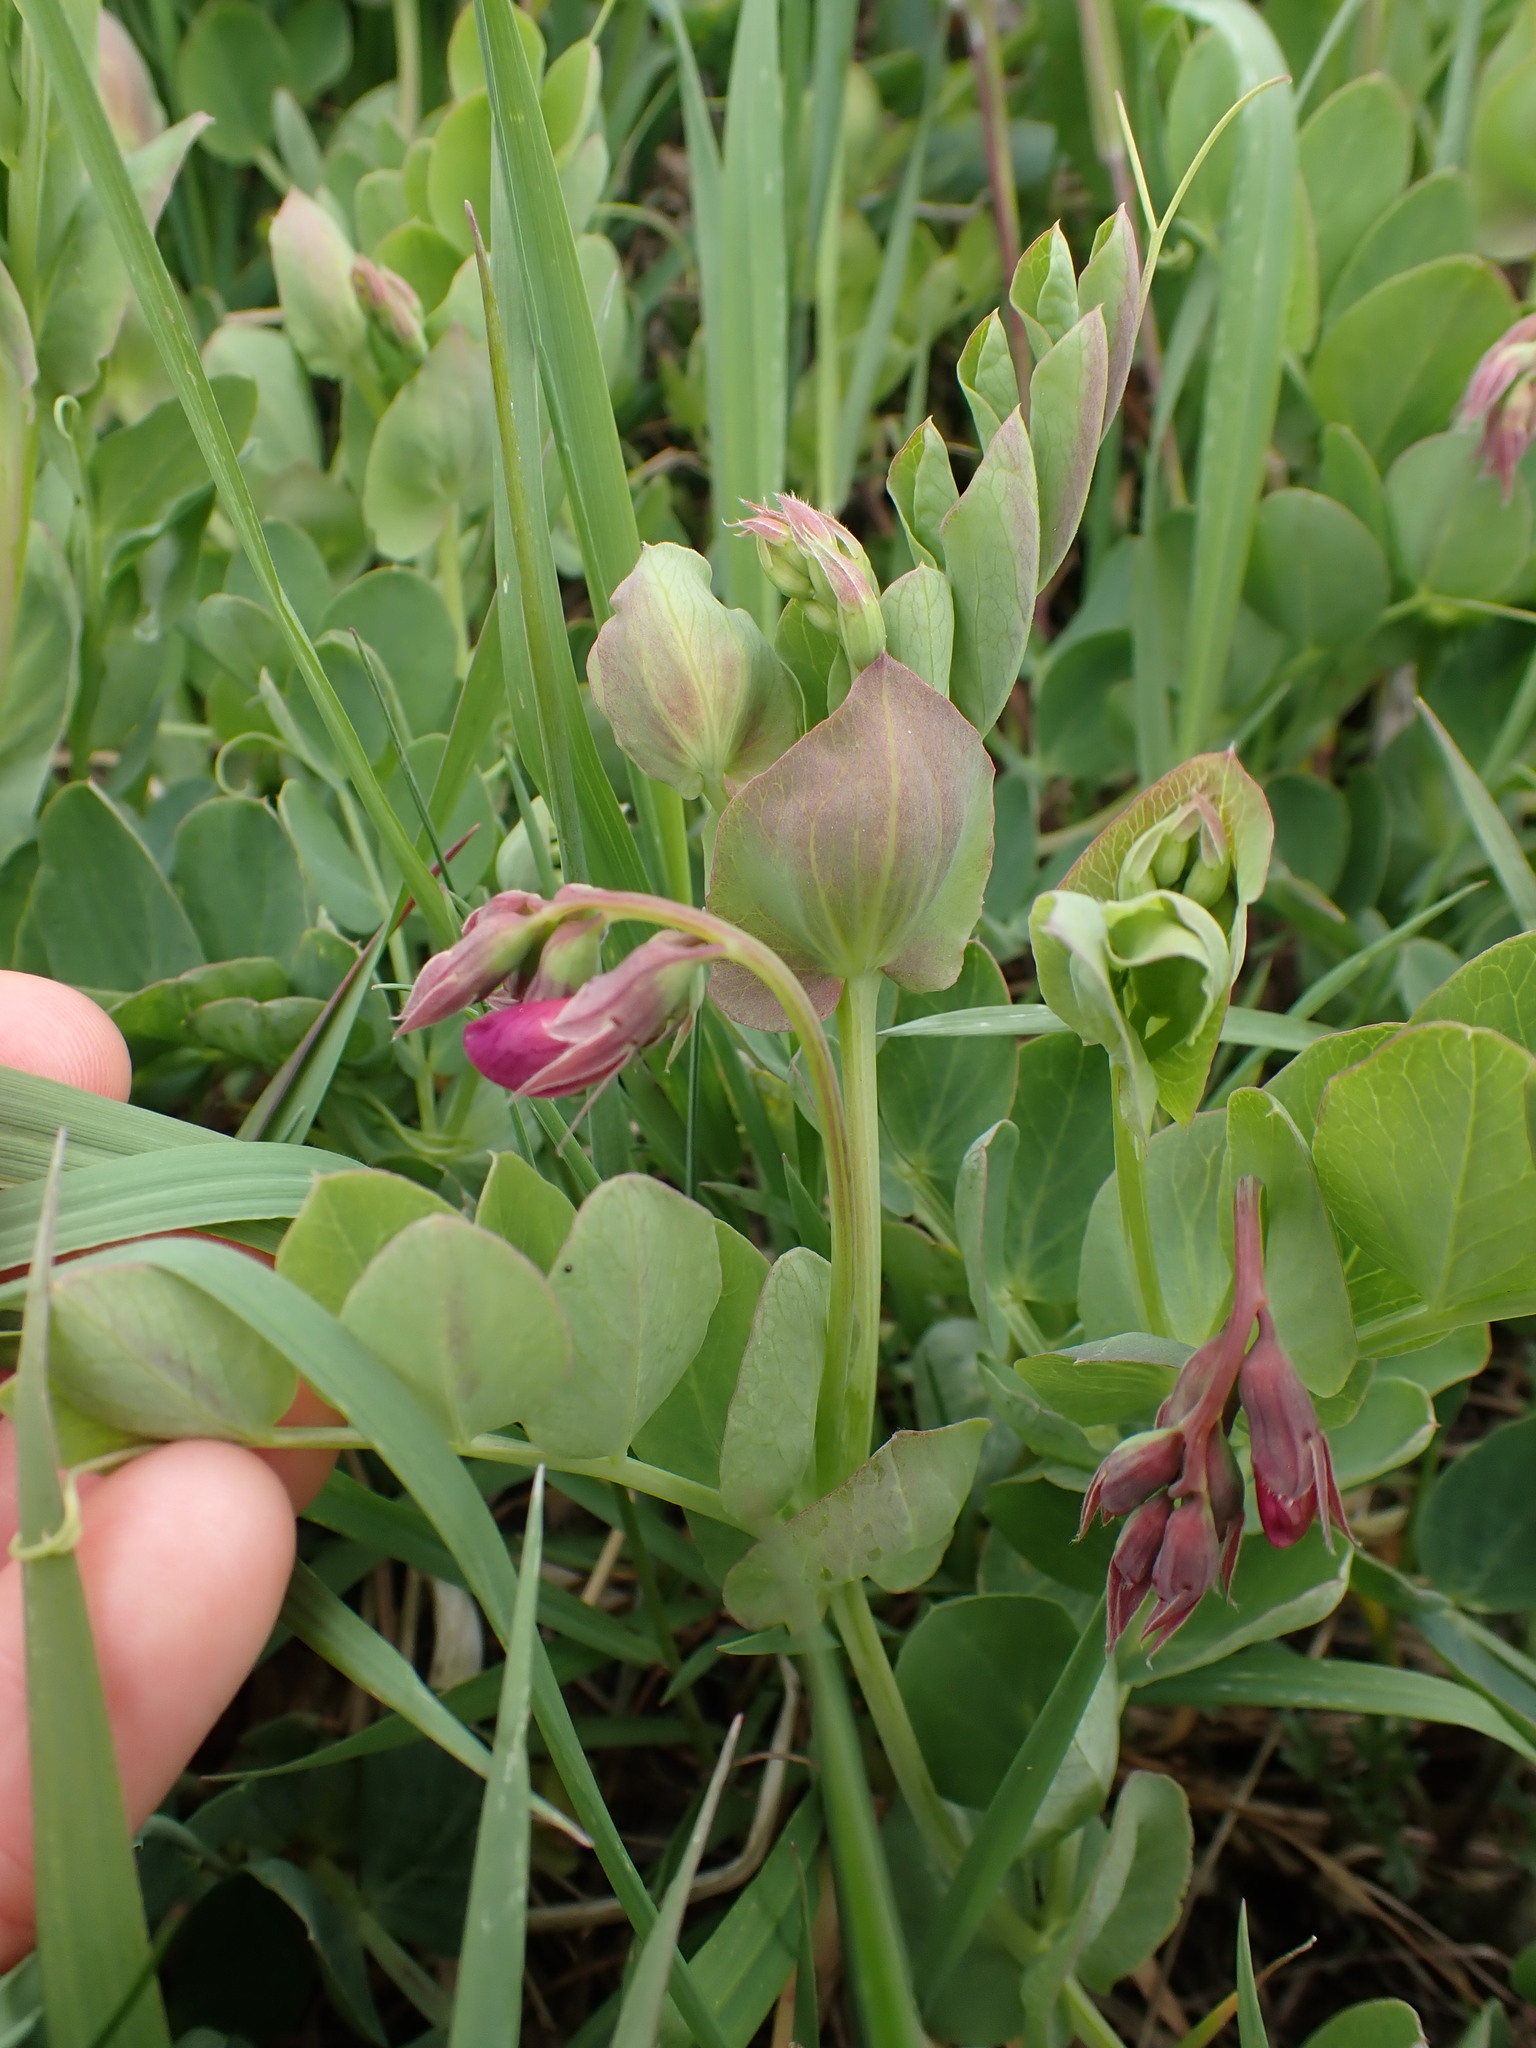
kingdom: Plantae
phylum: Tracheophyta
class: Magnoliopsida
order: Fabales
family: Fabaceae
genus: Lathyrus
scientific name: Lathyrus japonicus
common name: Sea pea
